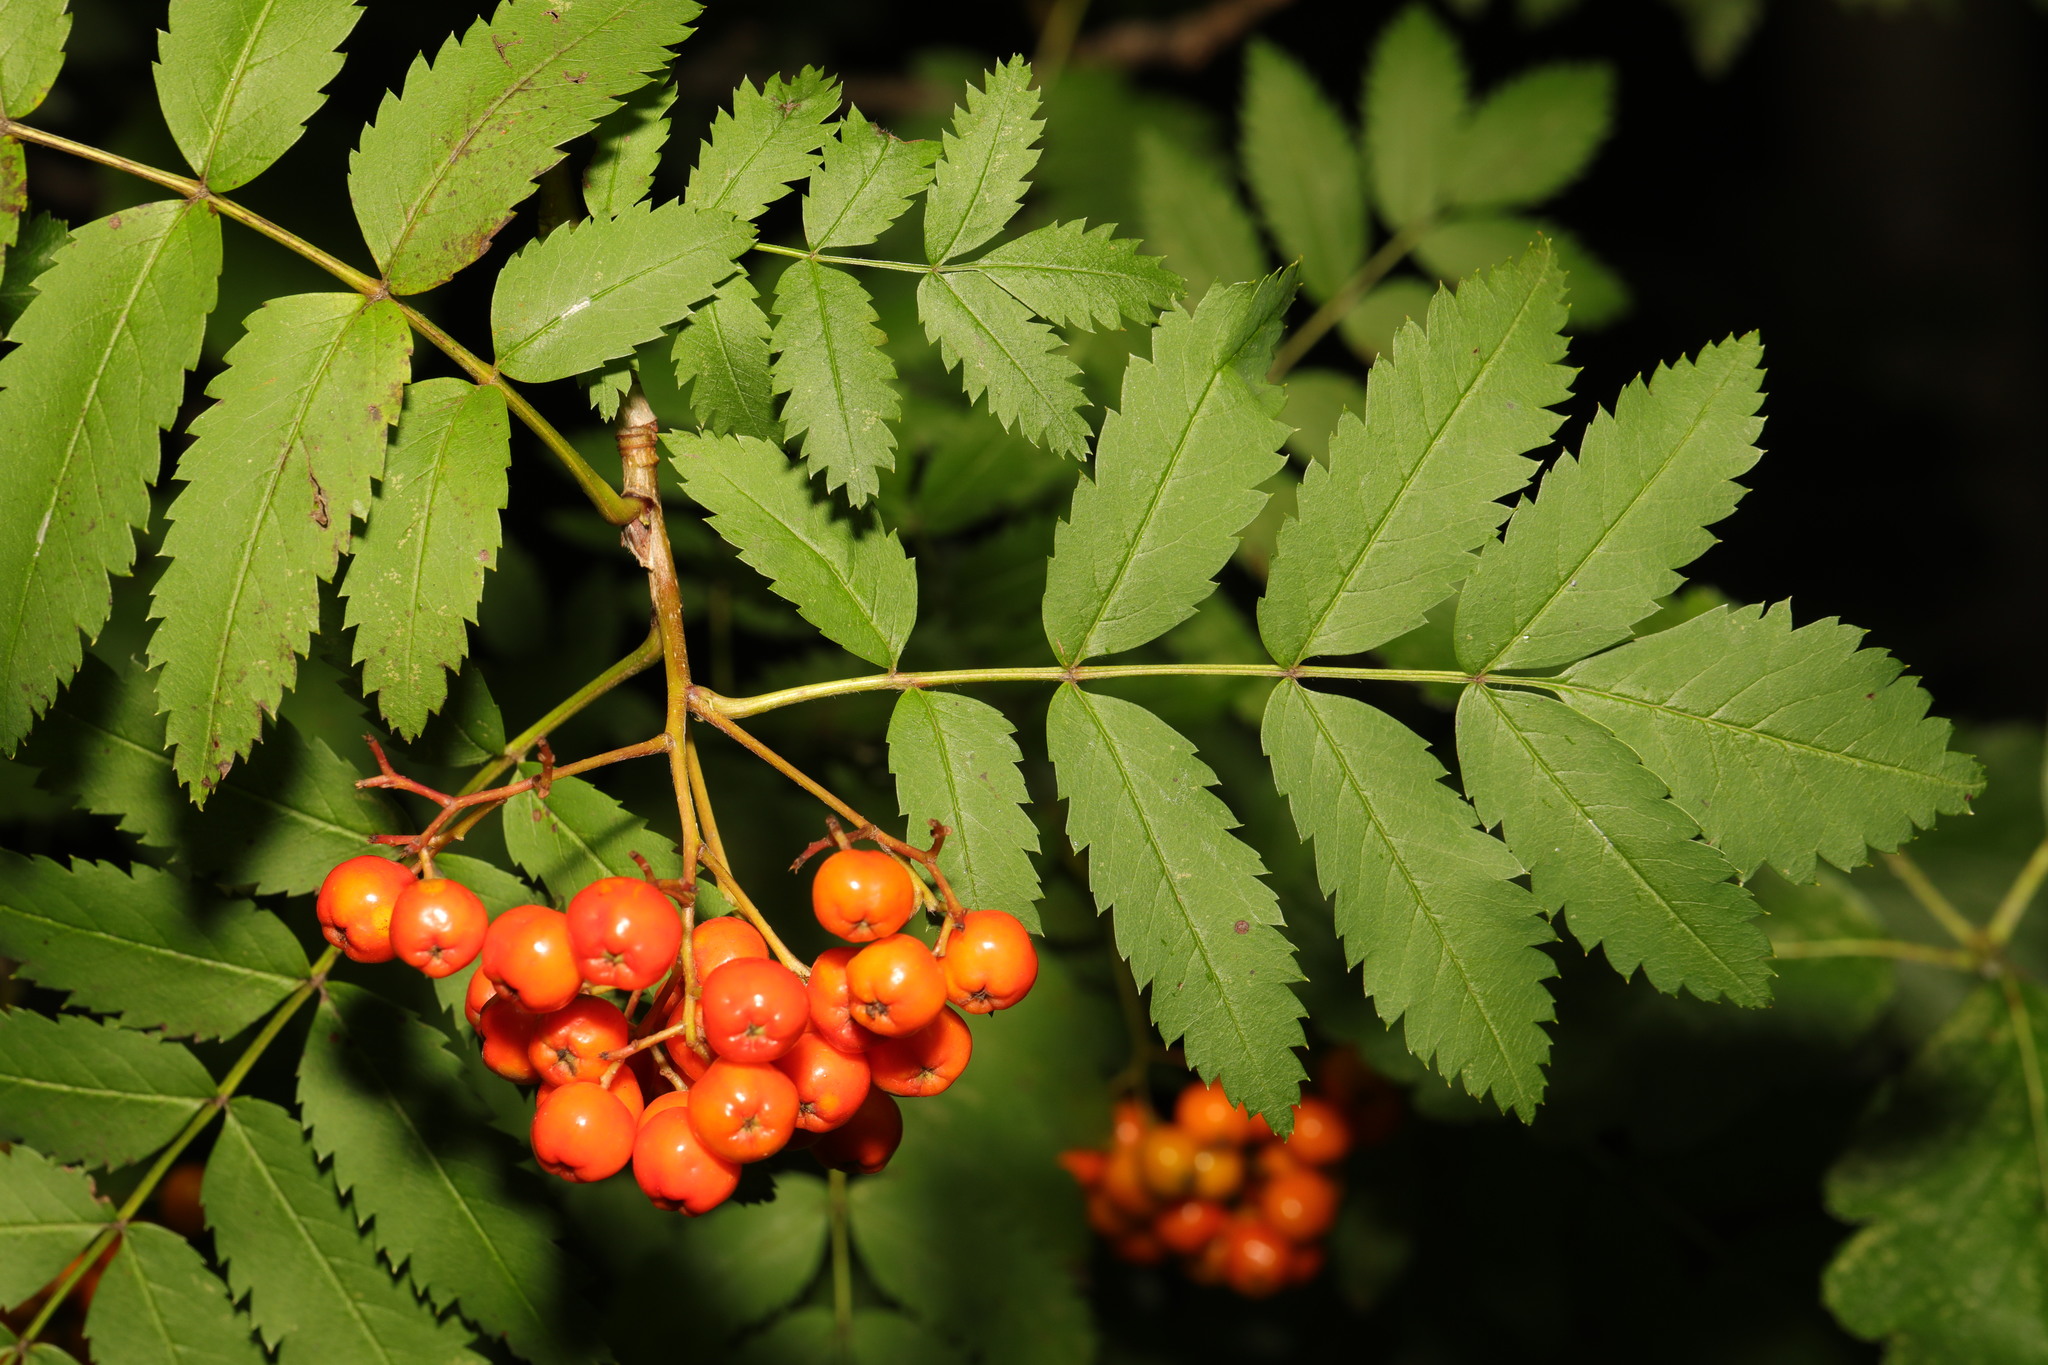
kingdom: Plantae
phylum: Tracheophyta
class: Magnoliopsida
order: Rosales
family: Rosaceae
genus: Sorbus
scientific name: Sorbus aucuparia
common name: Rowan
